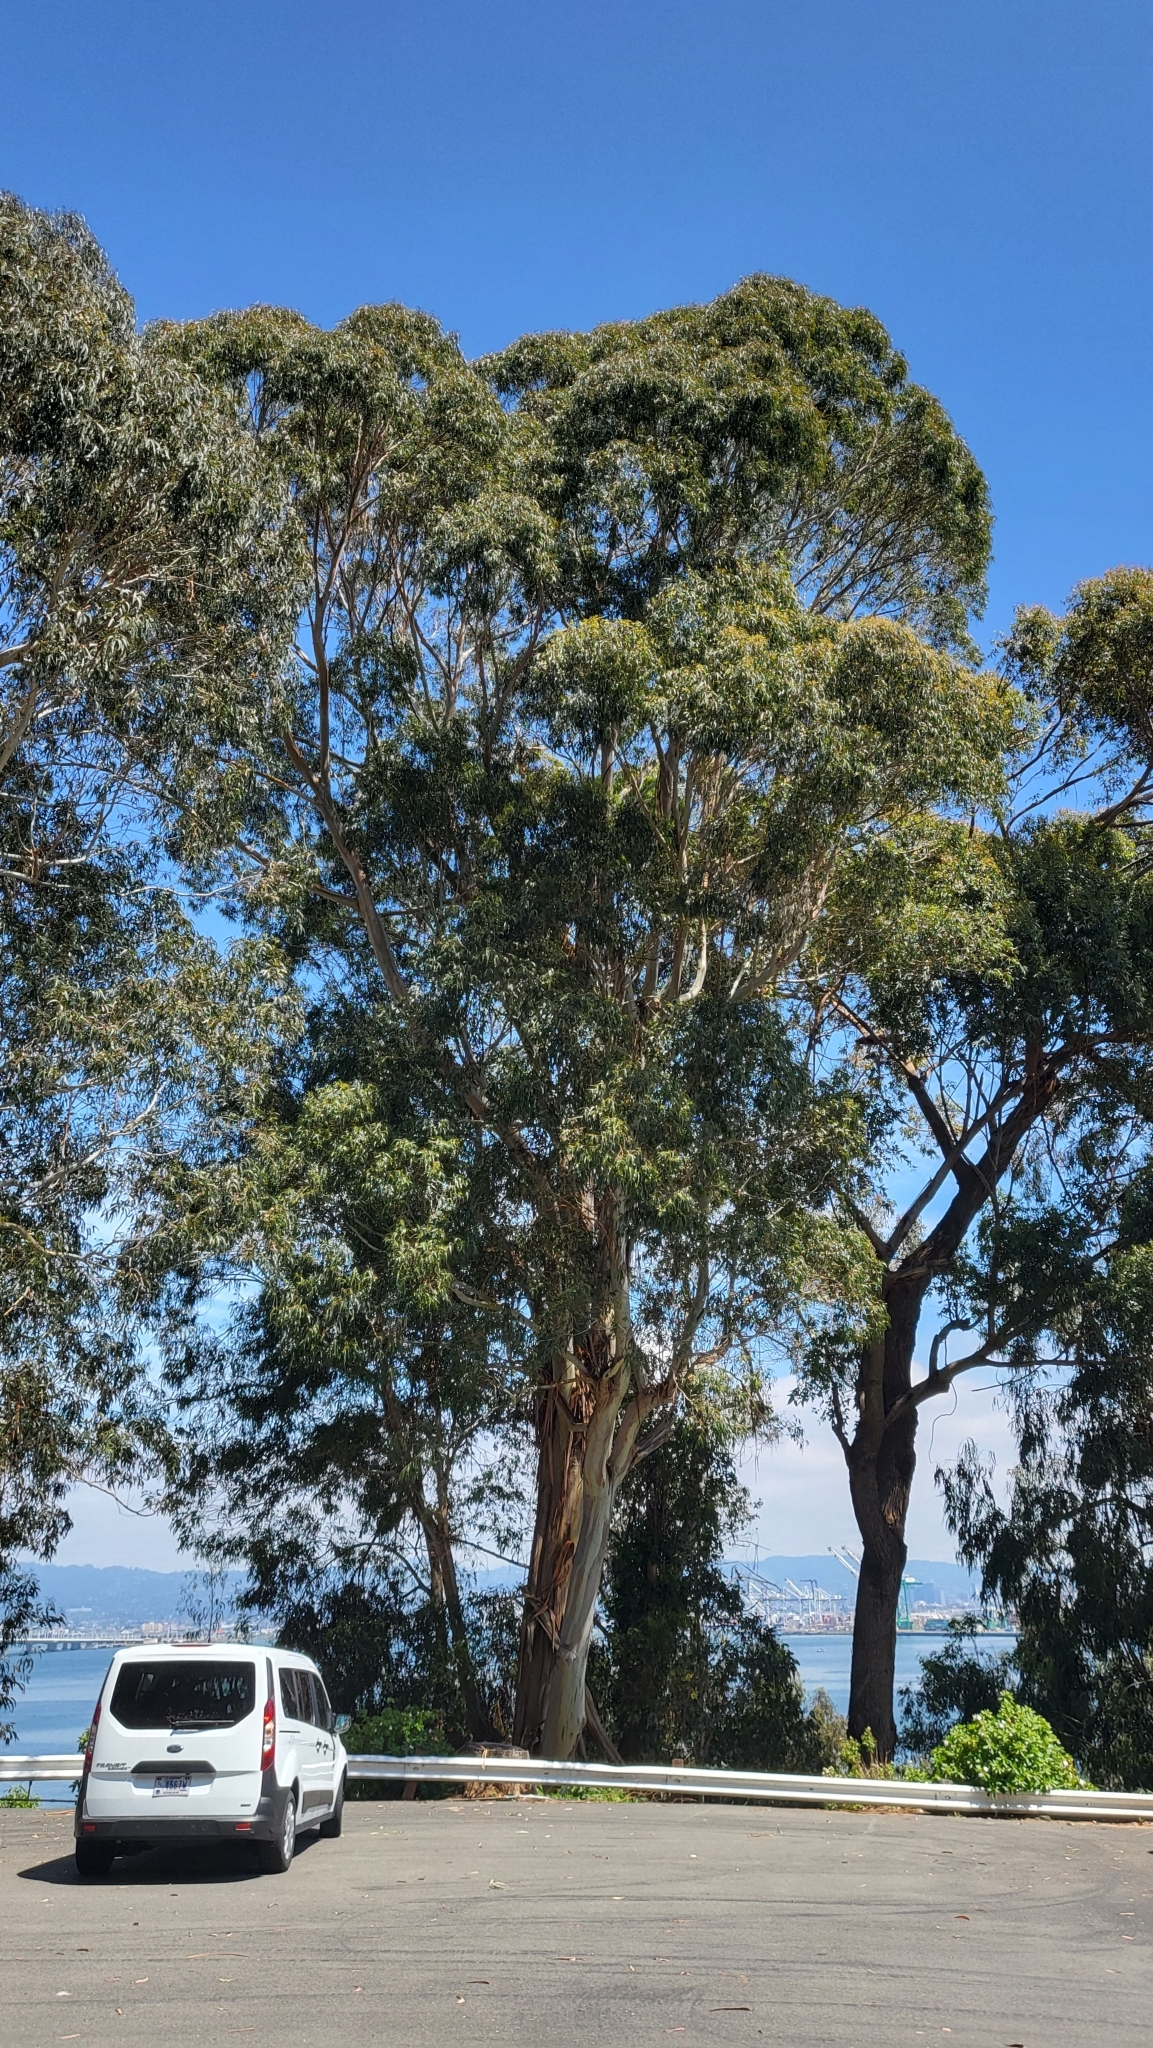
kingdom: Plantae
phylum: Tracheophyta
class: Magnoliopsida
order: Myrtales
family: Myrtaceae
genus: Eucalyptus
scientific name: Eucalyptus globulus
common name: Southern blue-gum
